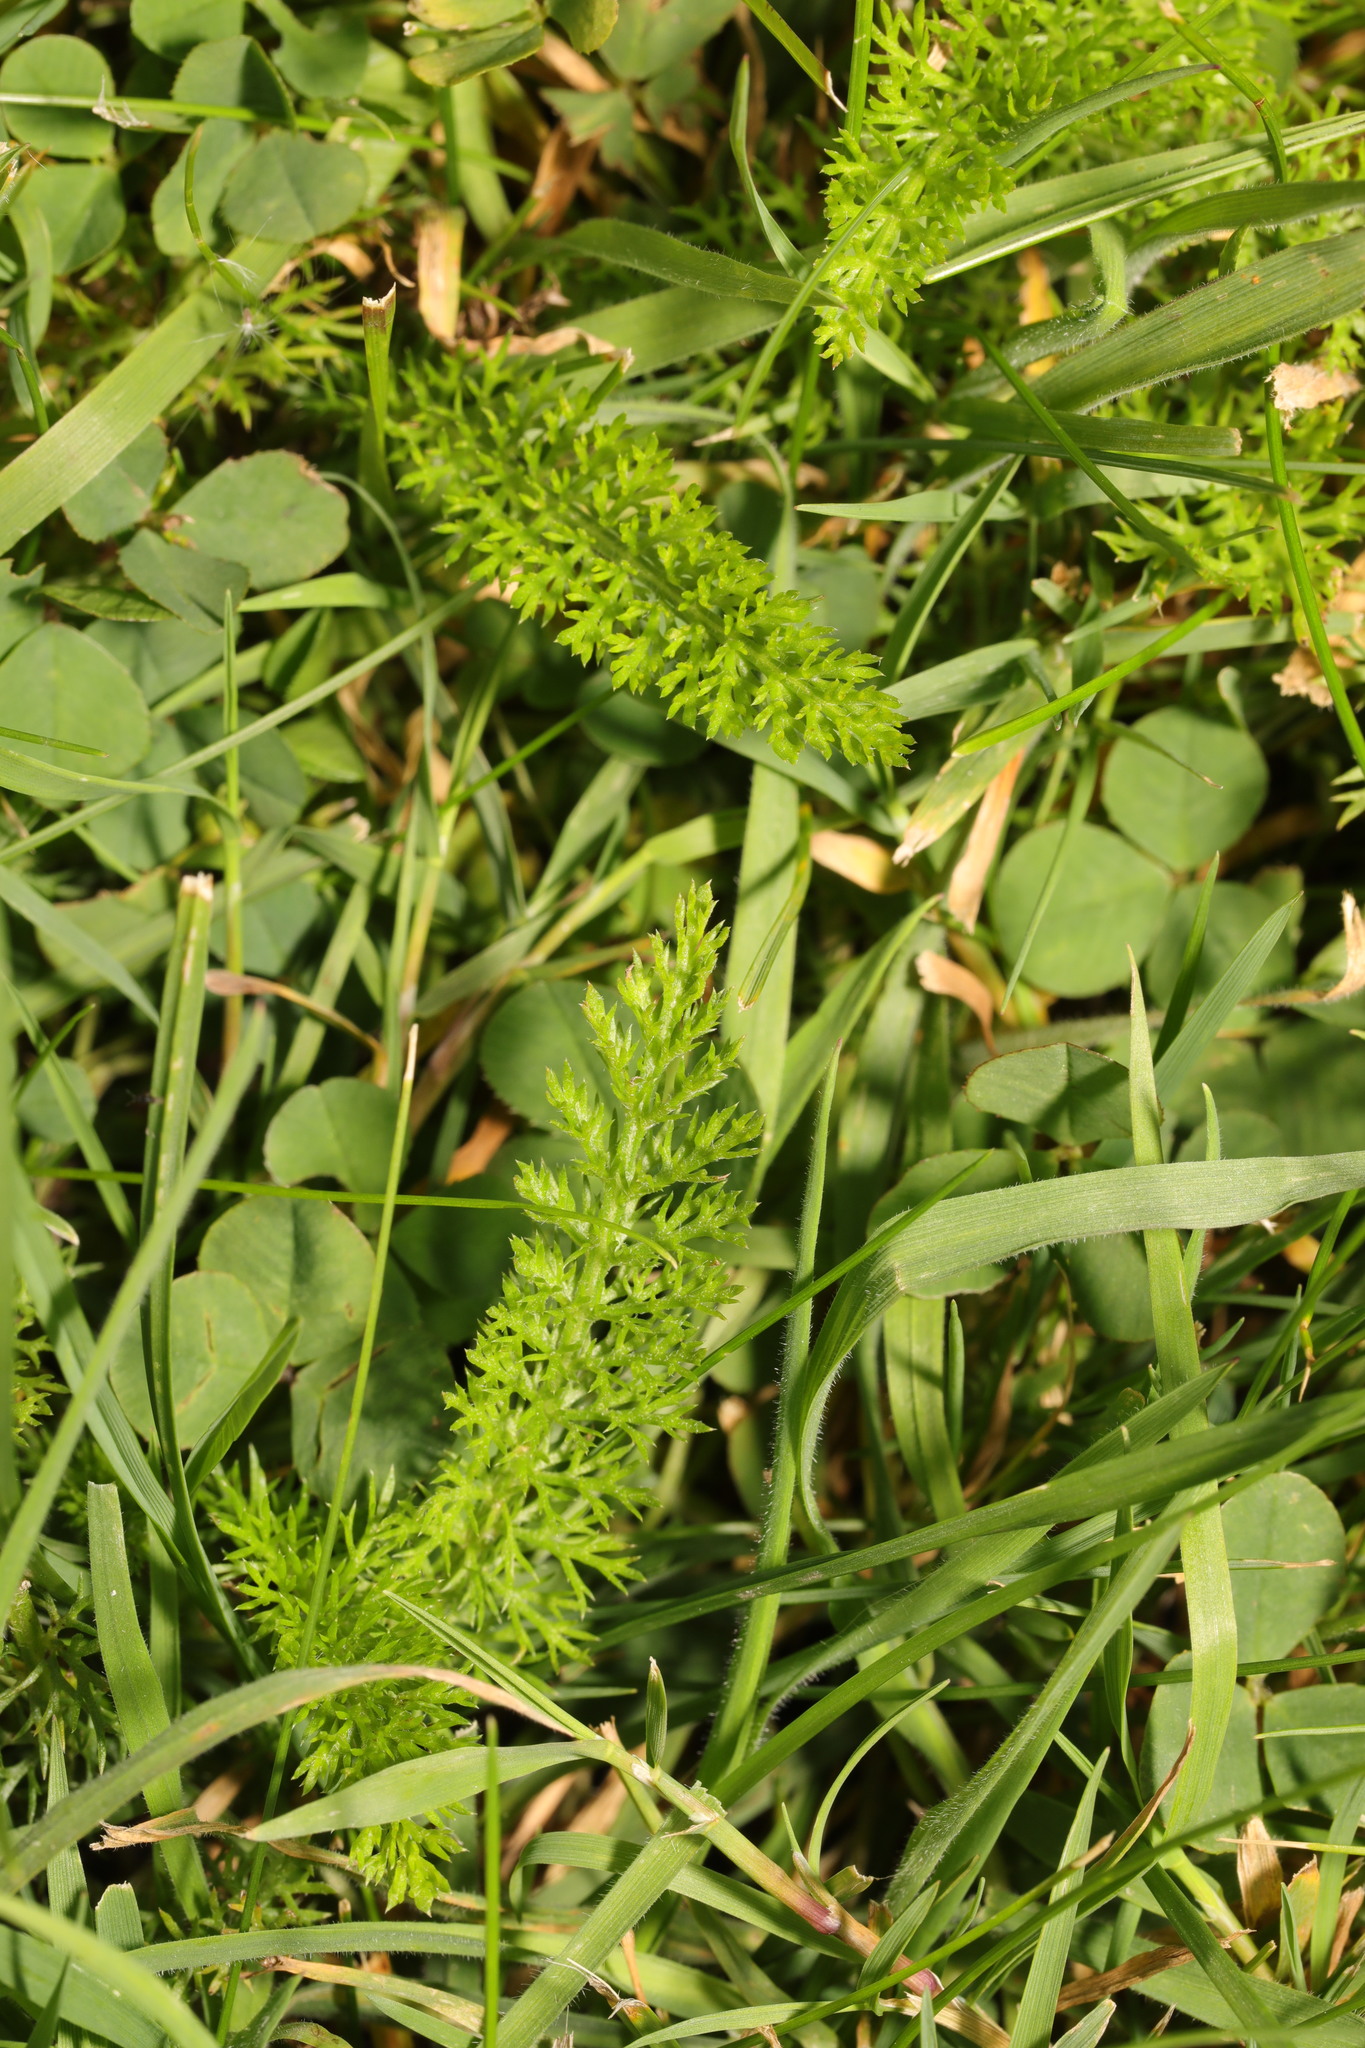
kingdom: Plantae
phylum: Tracheophyta
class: Magnoliopsida
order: Asterales
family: Asteraceae
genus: Achillea
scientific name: Achillea millefolium
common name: Yarrow
